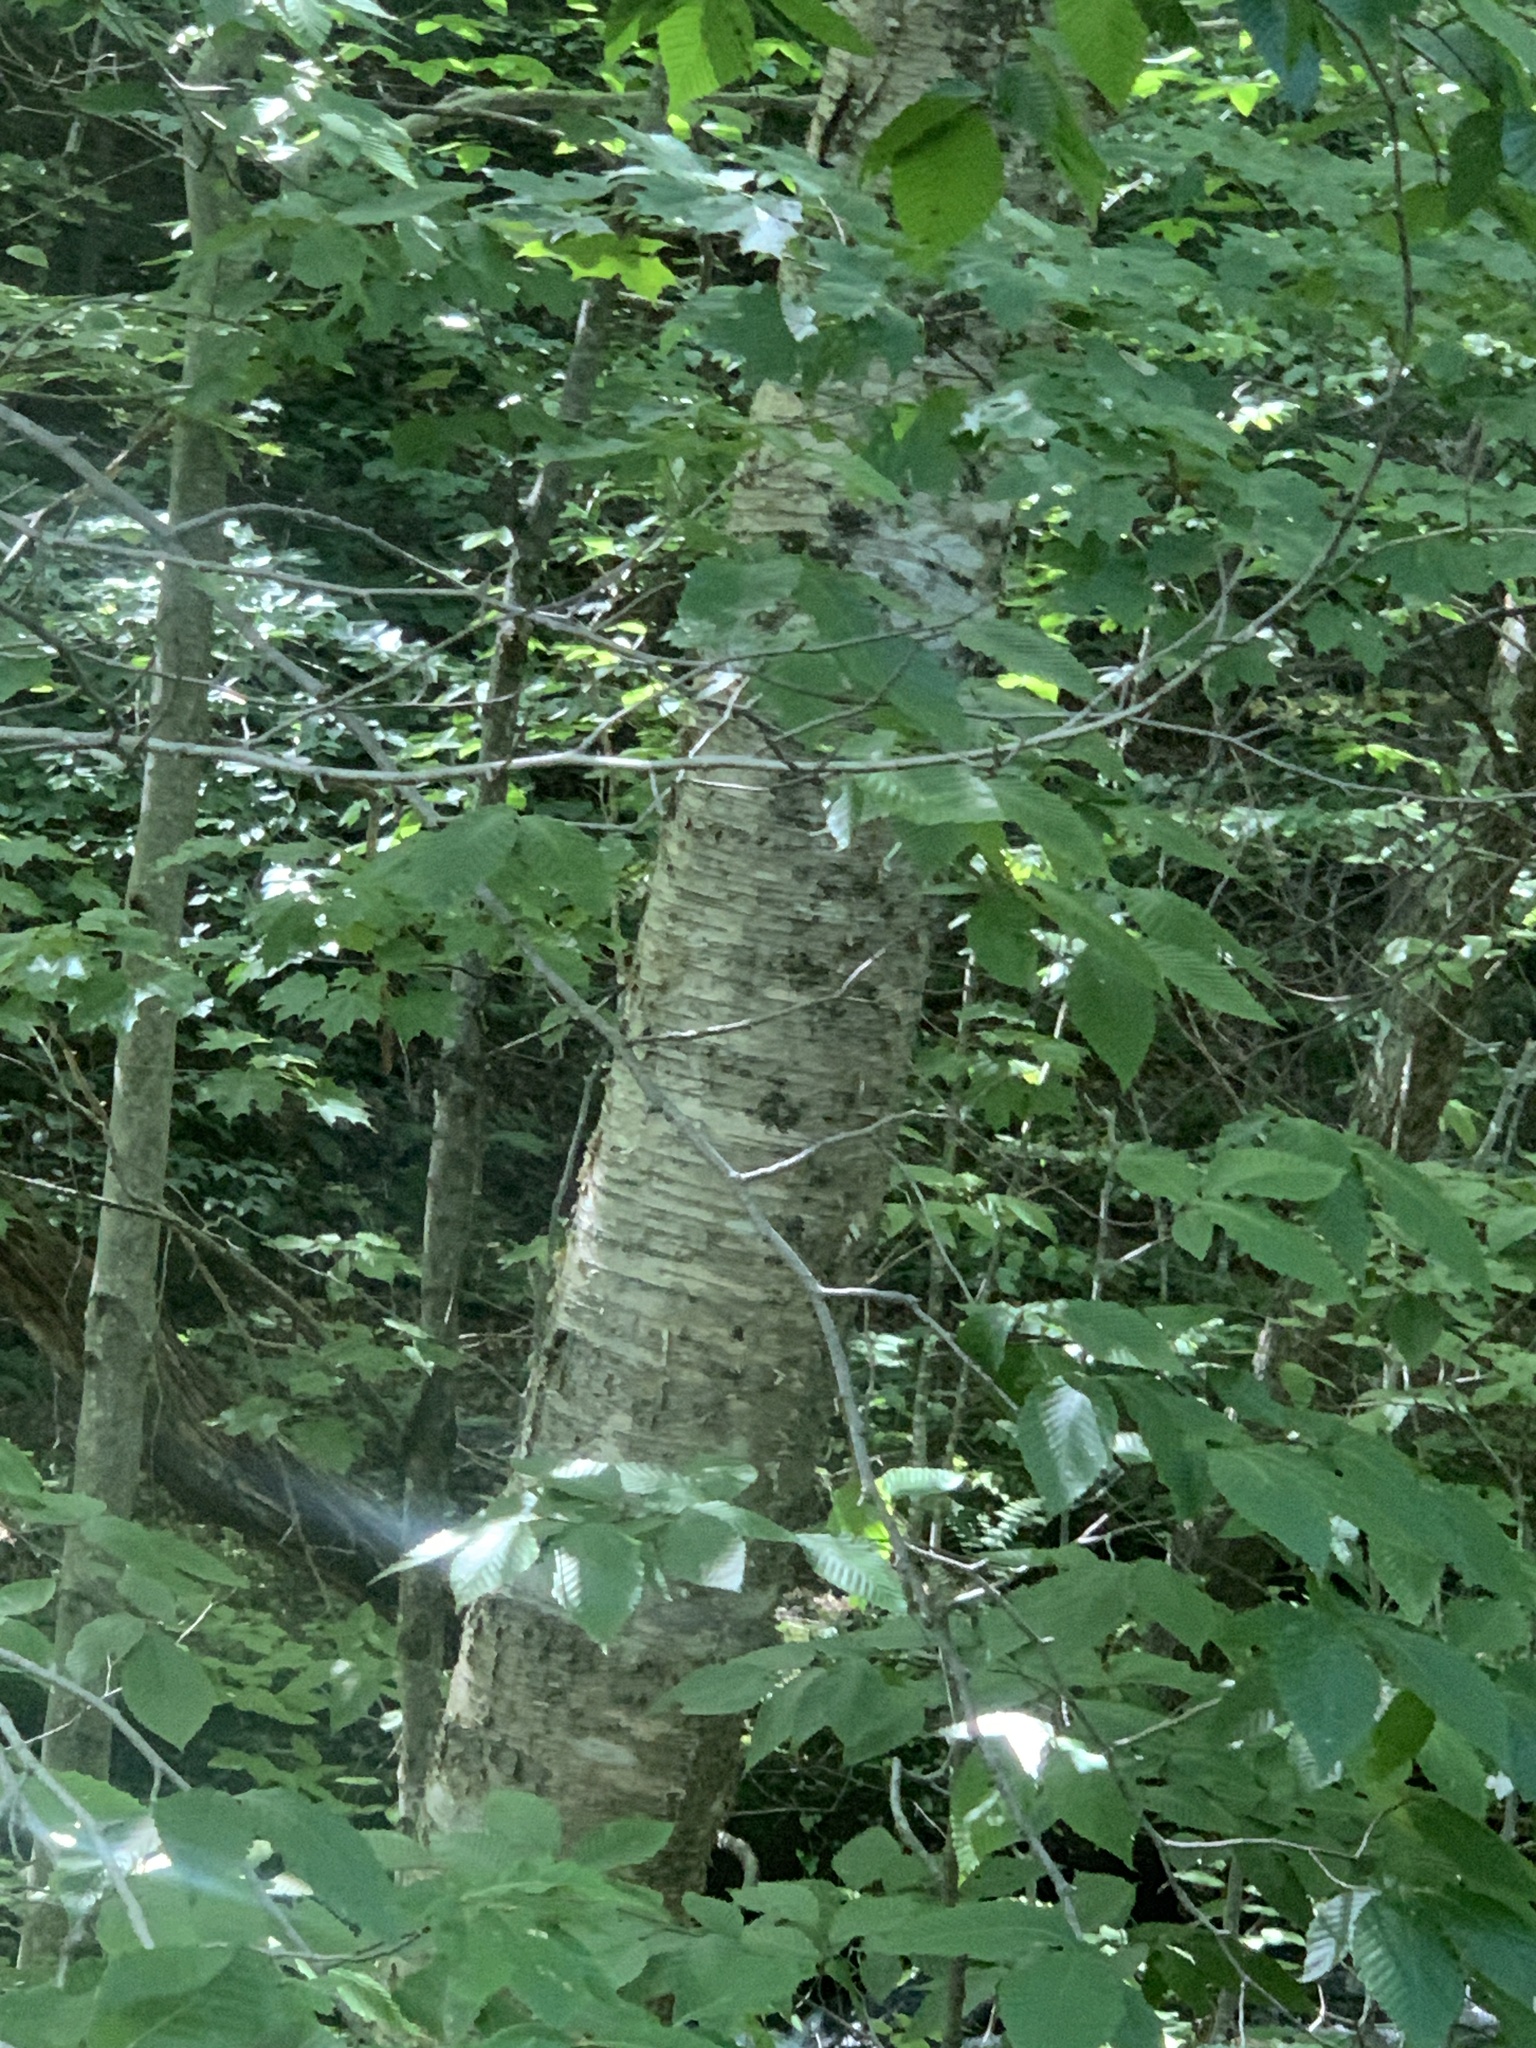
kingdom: Plantae
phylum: Tracheophyta
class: Magnoliopsida
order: Fagales
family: Betulaceae
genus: Betula
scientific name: Betula alleghaniensis
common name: Yellow birch
